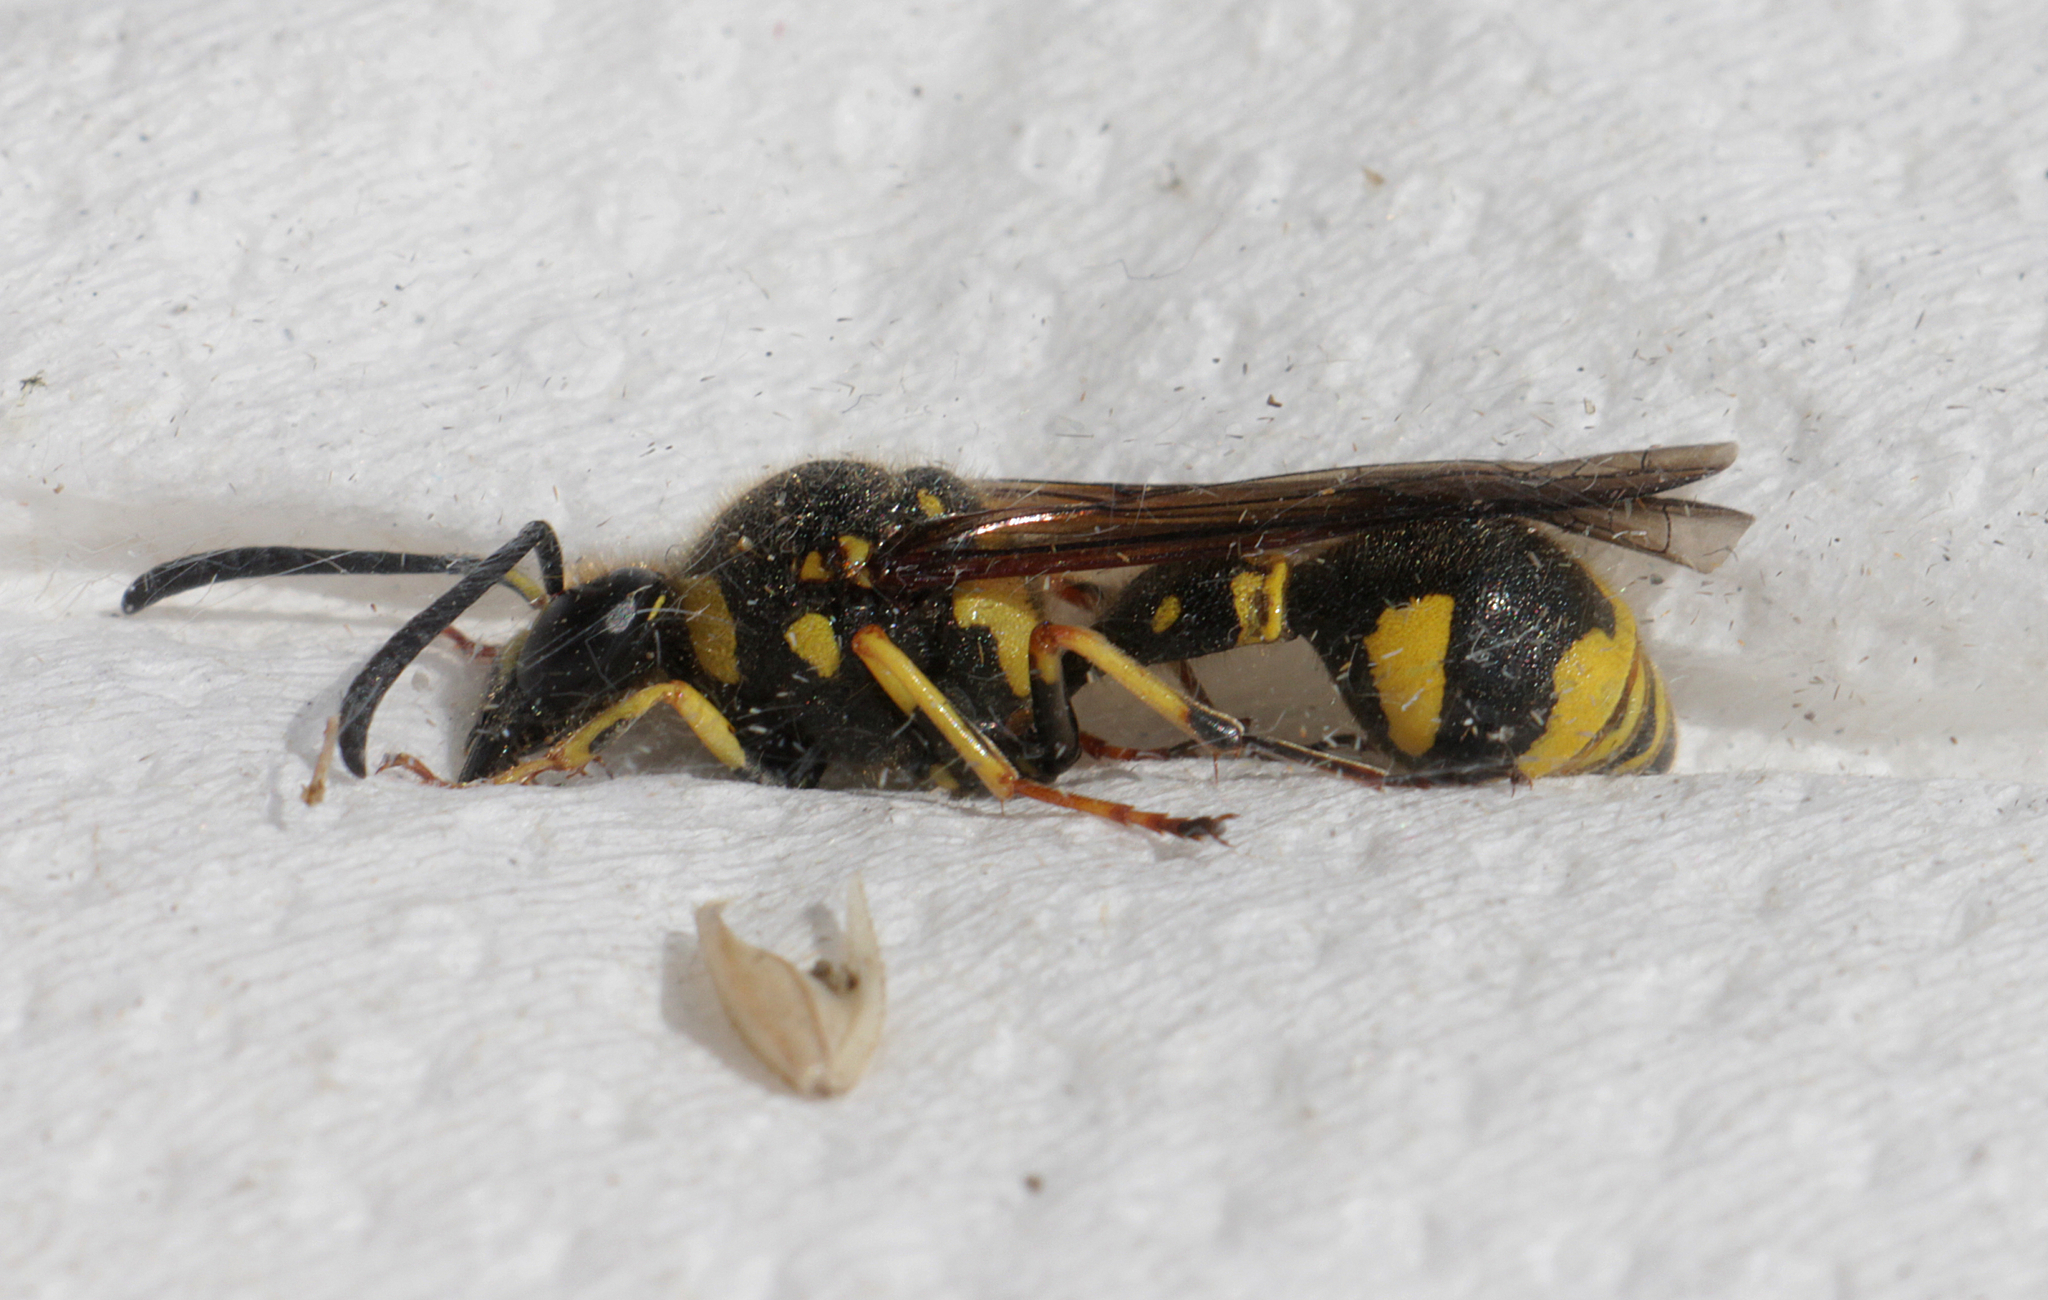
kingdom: Animalia
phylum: Arthropoda
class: Insecta
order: Hymenoptera
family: Vespidae
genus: Eumenes
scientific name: Eumenes papillarius
